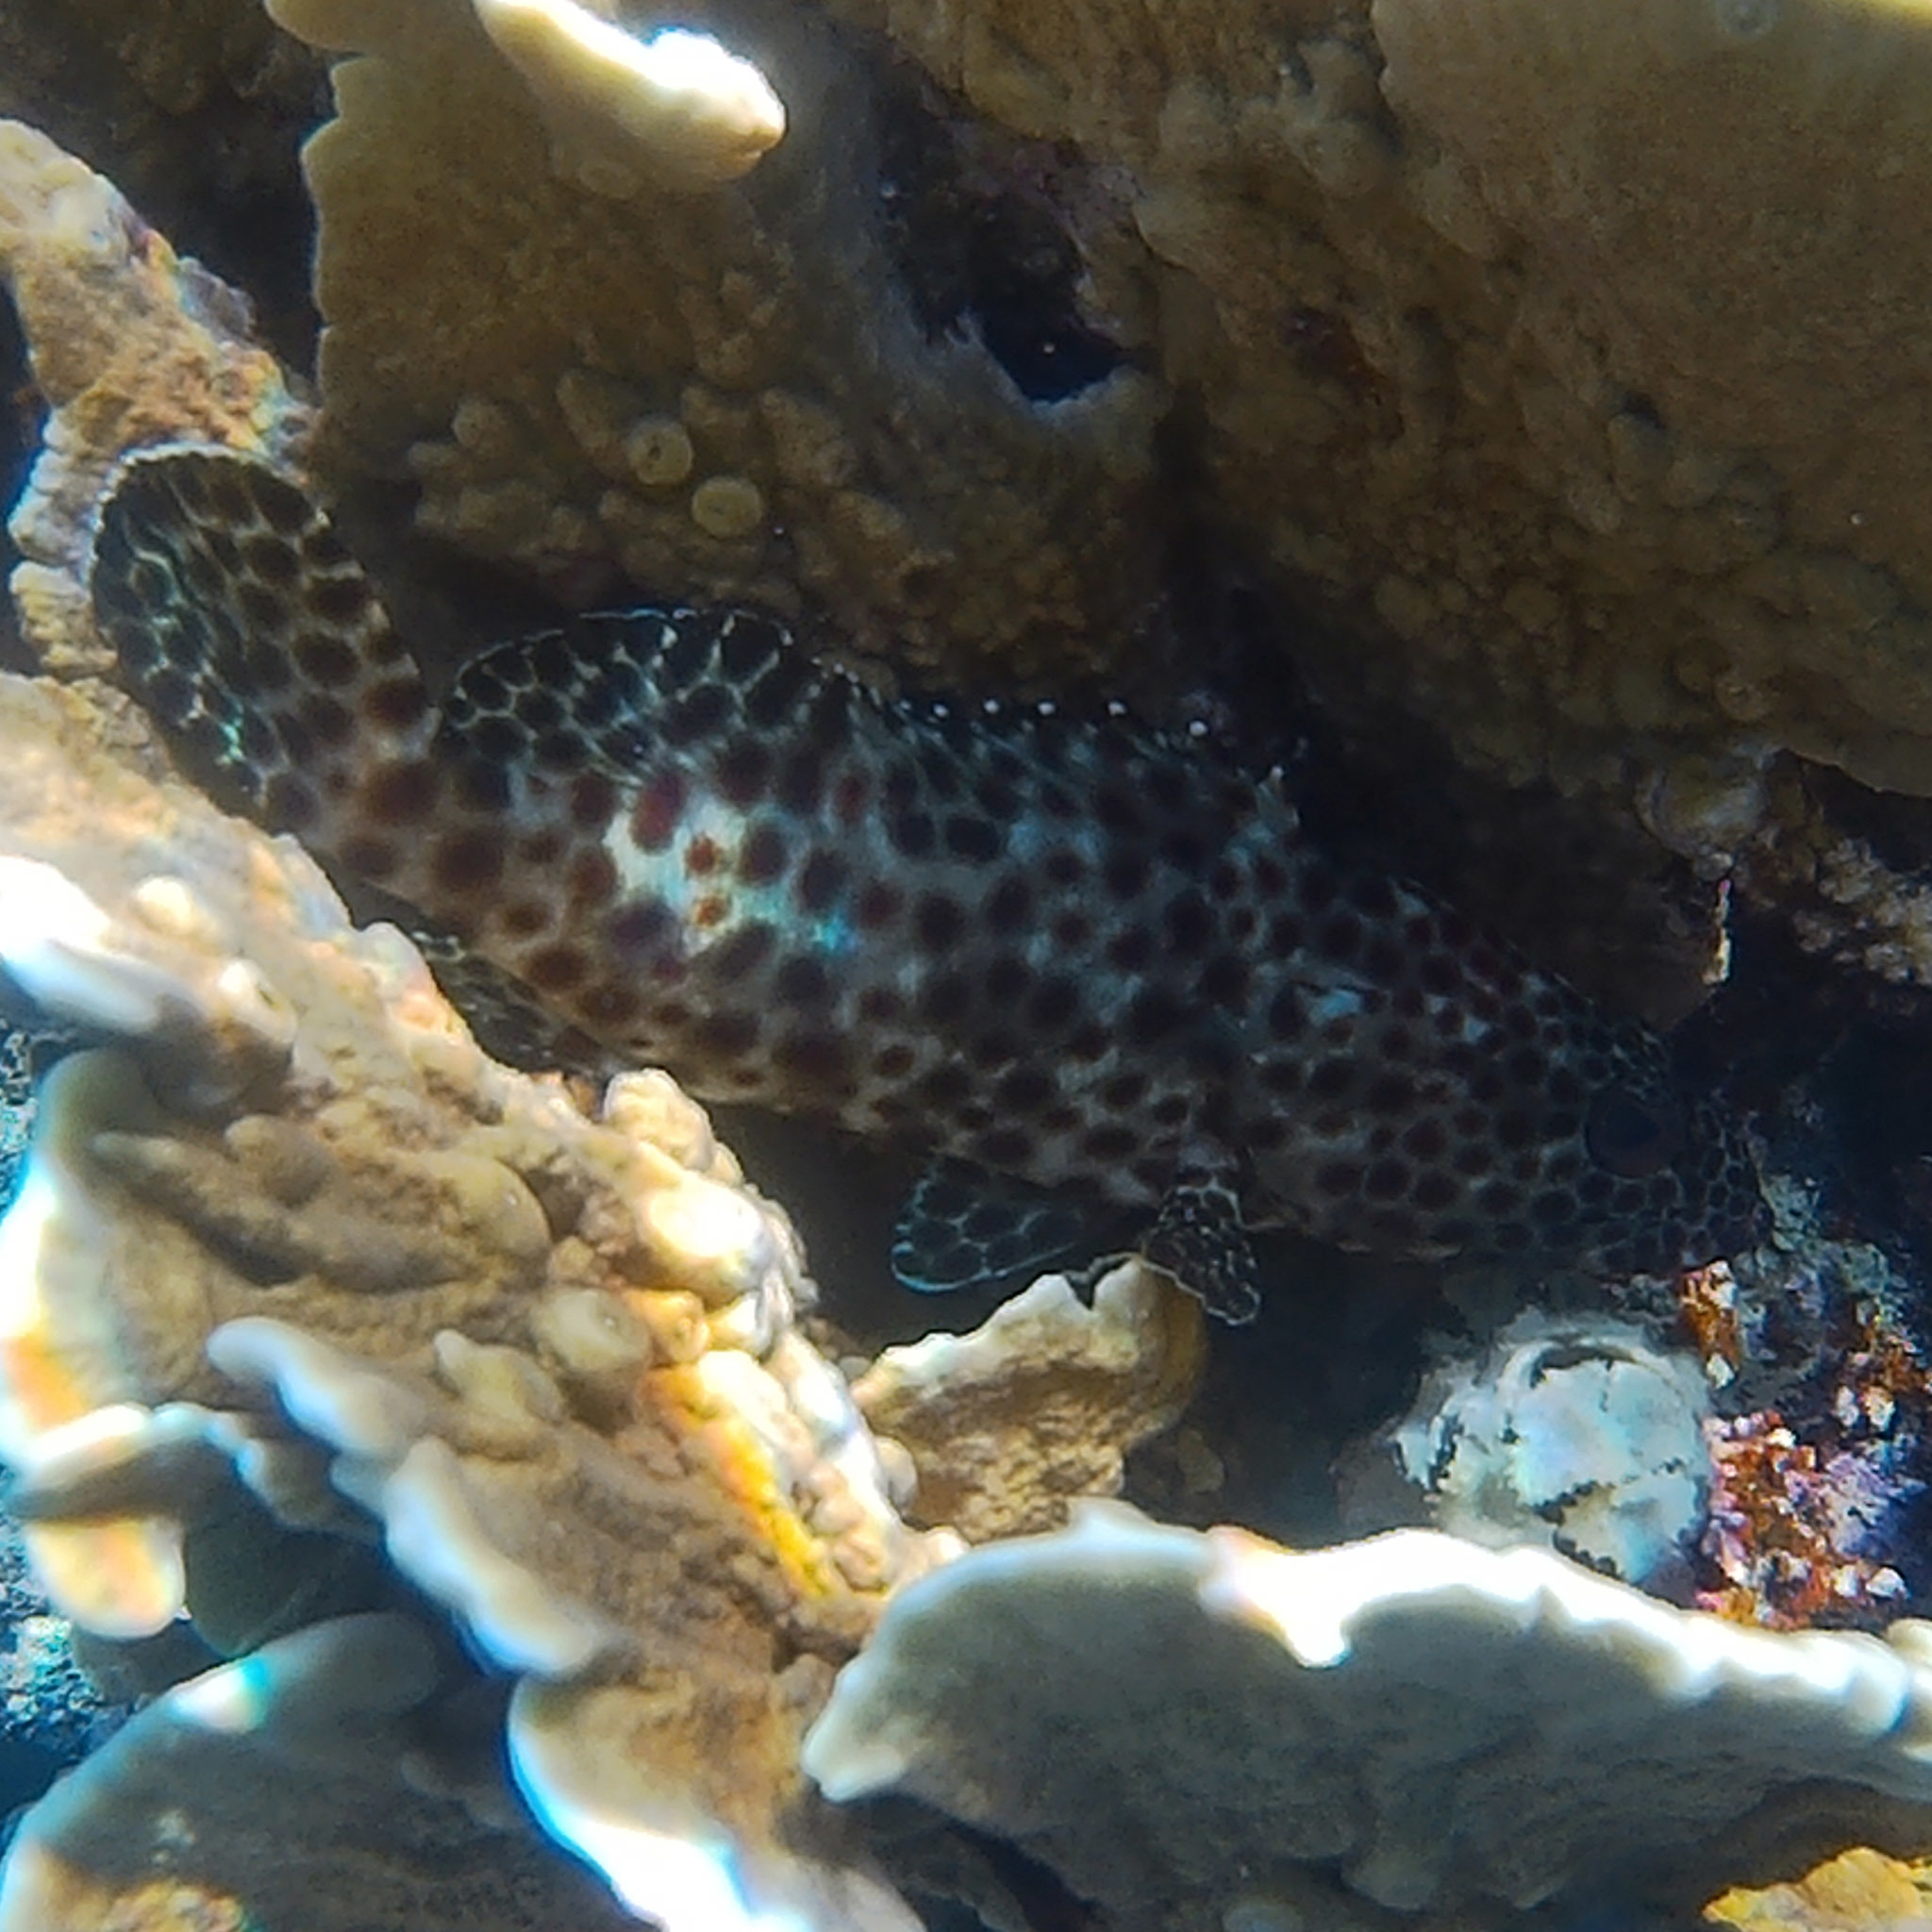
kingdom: Animalia
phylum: Chordata
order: Perciformes
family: Serranidae
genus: Epinephelus
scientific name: Epinephelus tauvina
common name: Greasy grouper
